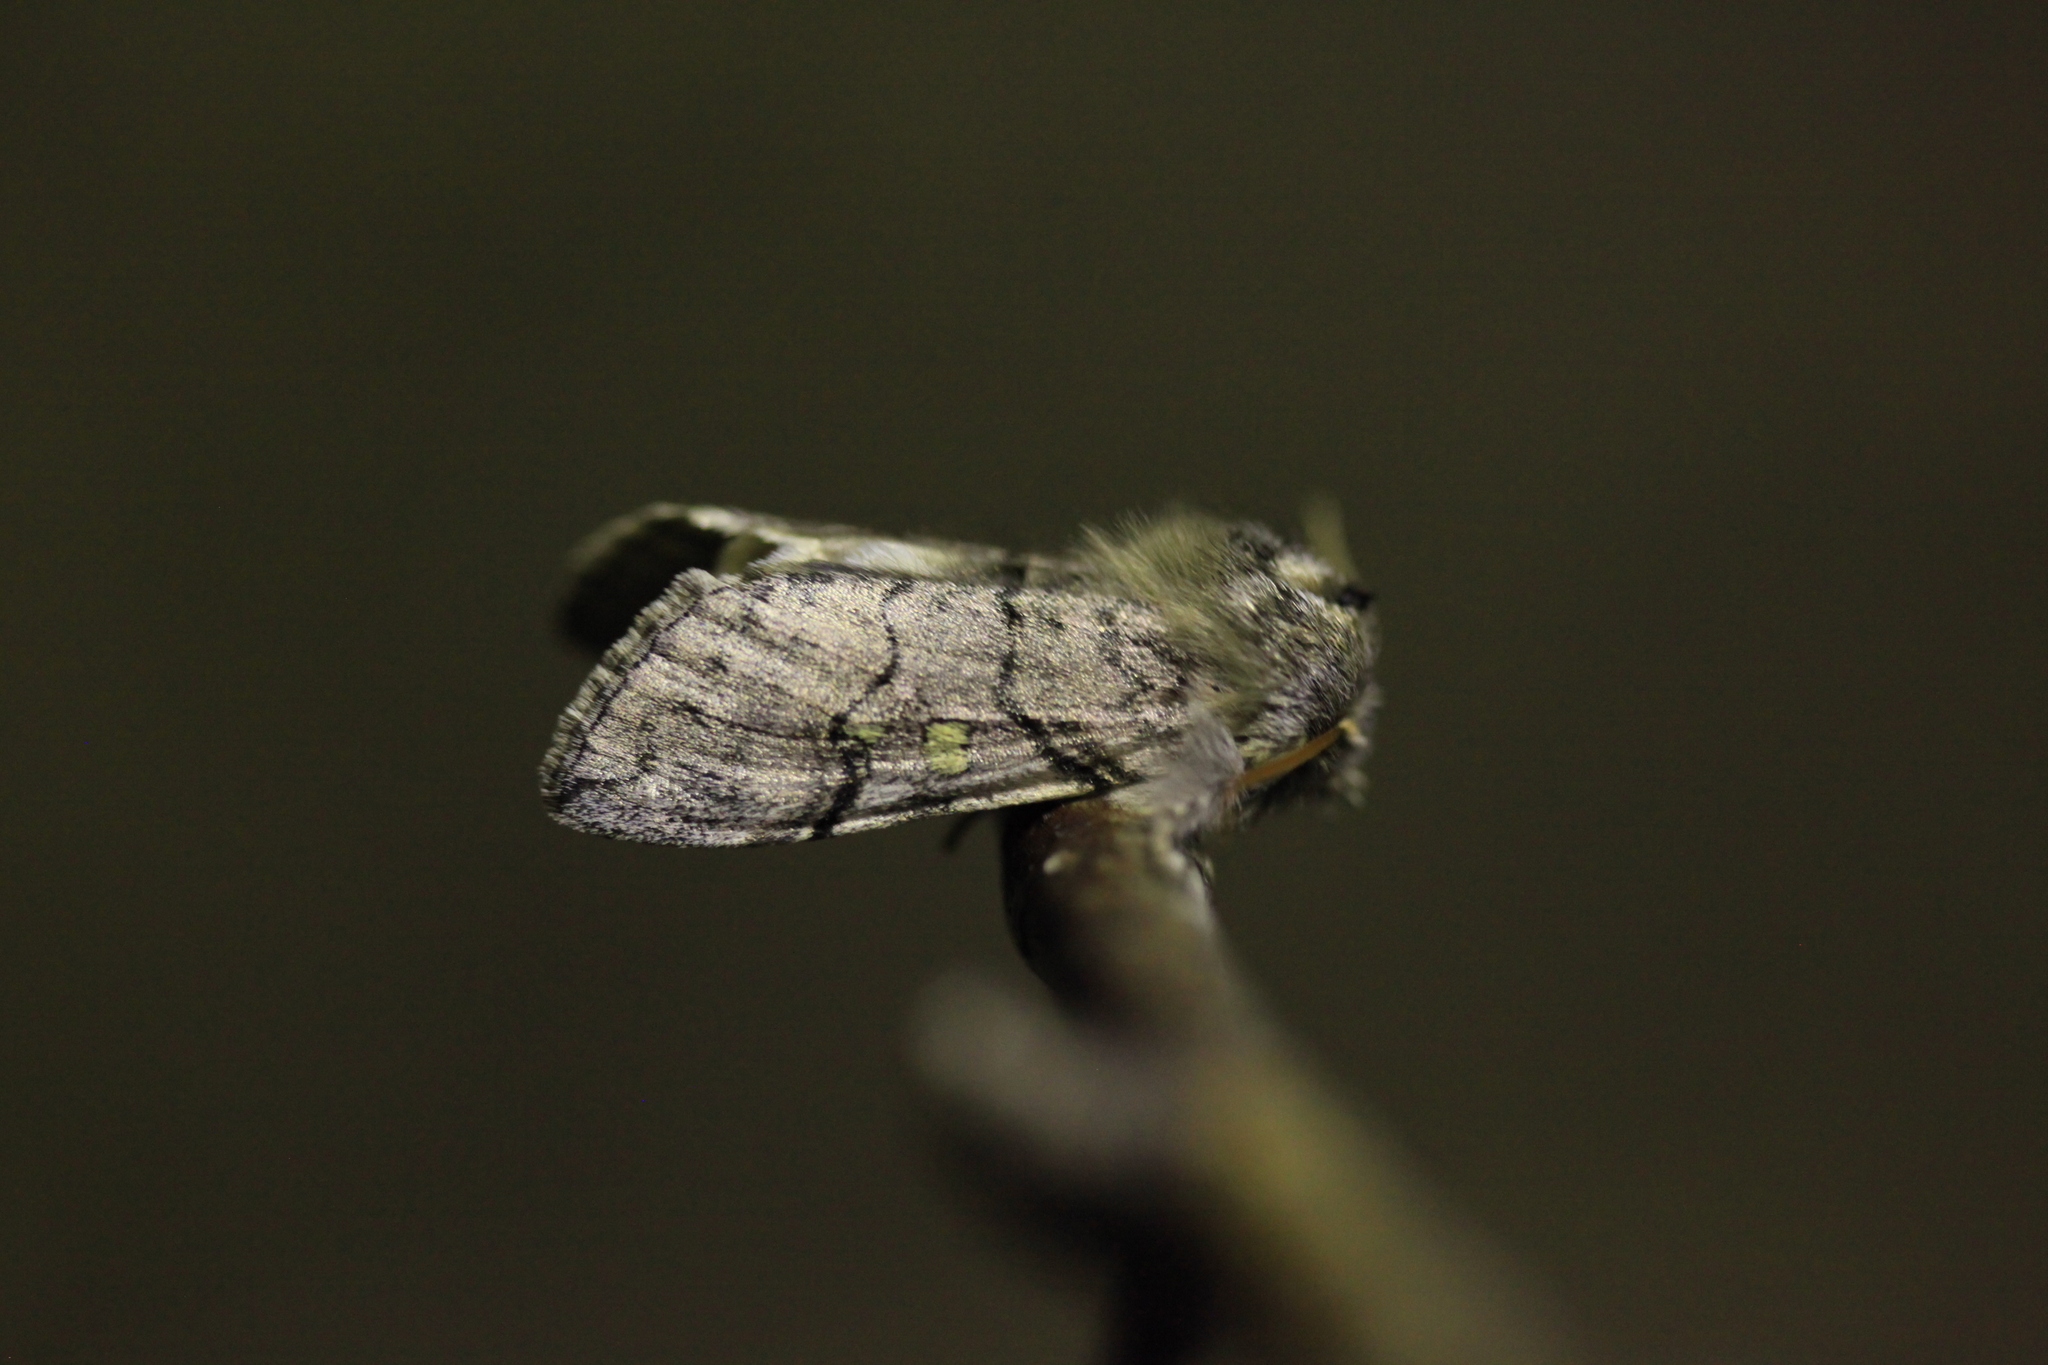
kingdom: Animalia
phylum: Arthropoda
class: Insecta
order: Lepidoptera
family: Drepanidae
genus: Achlya
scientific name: Achlya flavicornis
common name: Yellow horned
